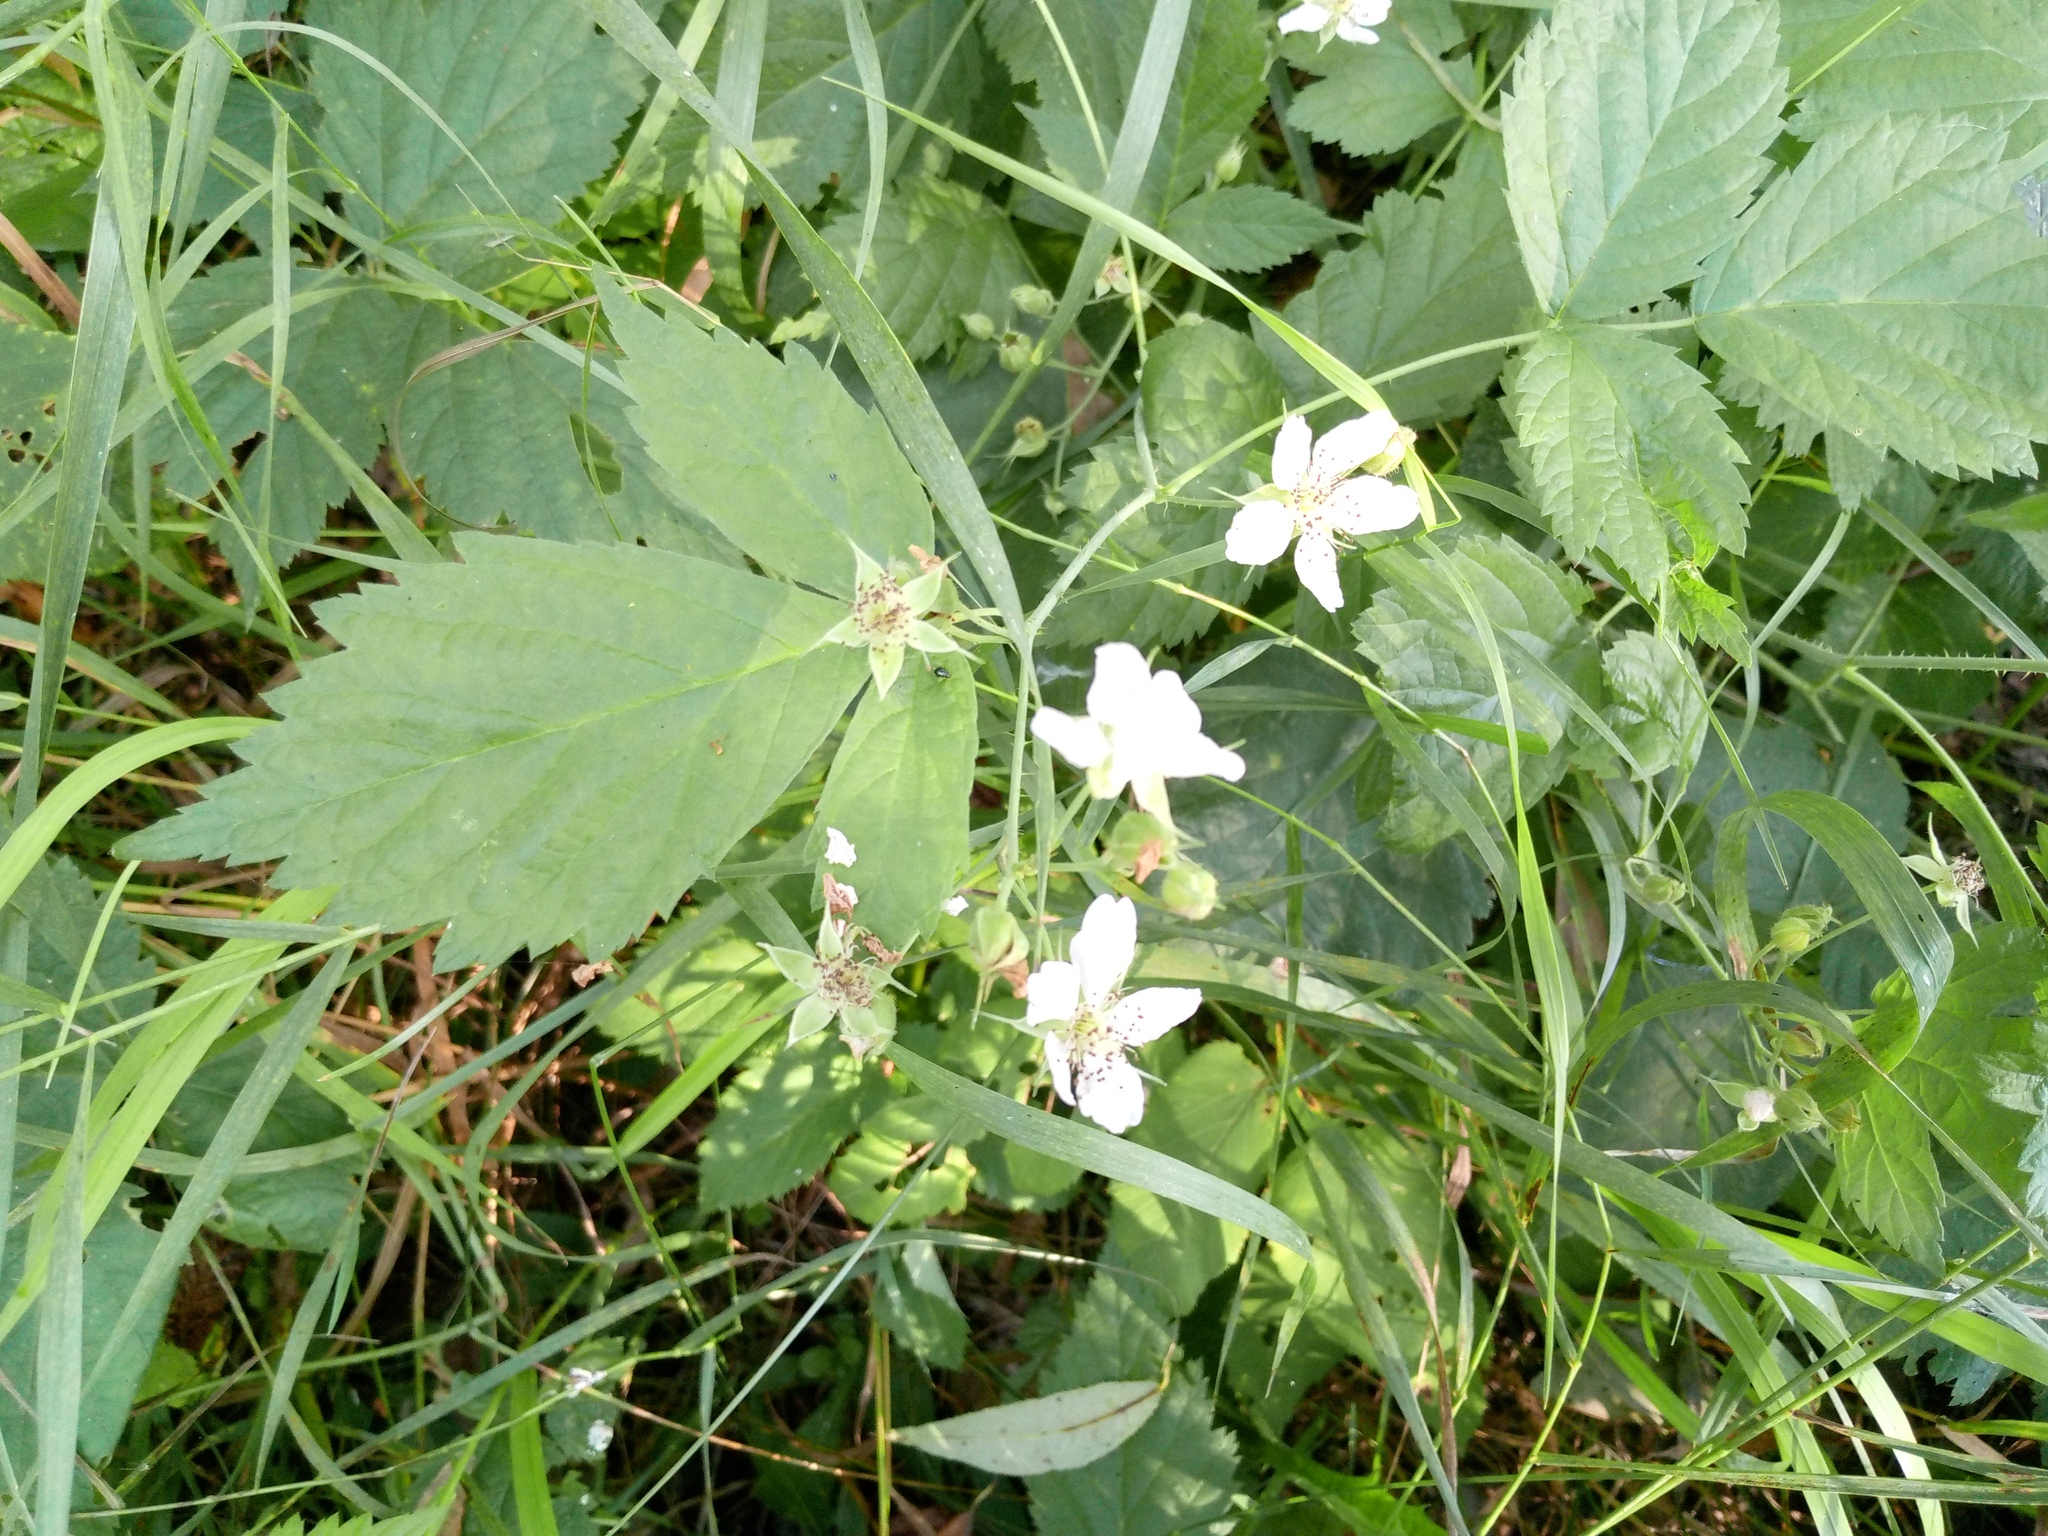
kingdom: Plantae
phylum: Tracheophyta
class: Magnoliopsida
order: Rosales
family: Rosaceae
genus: Rubus
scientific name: Rubus caesius
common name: Dewberry
